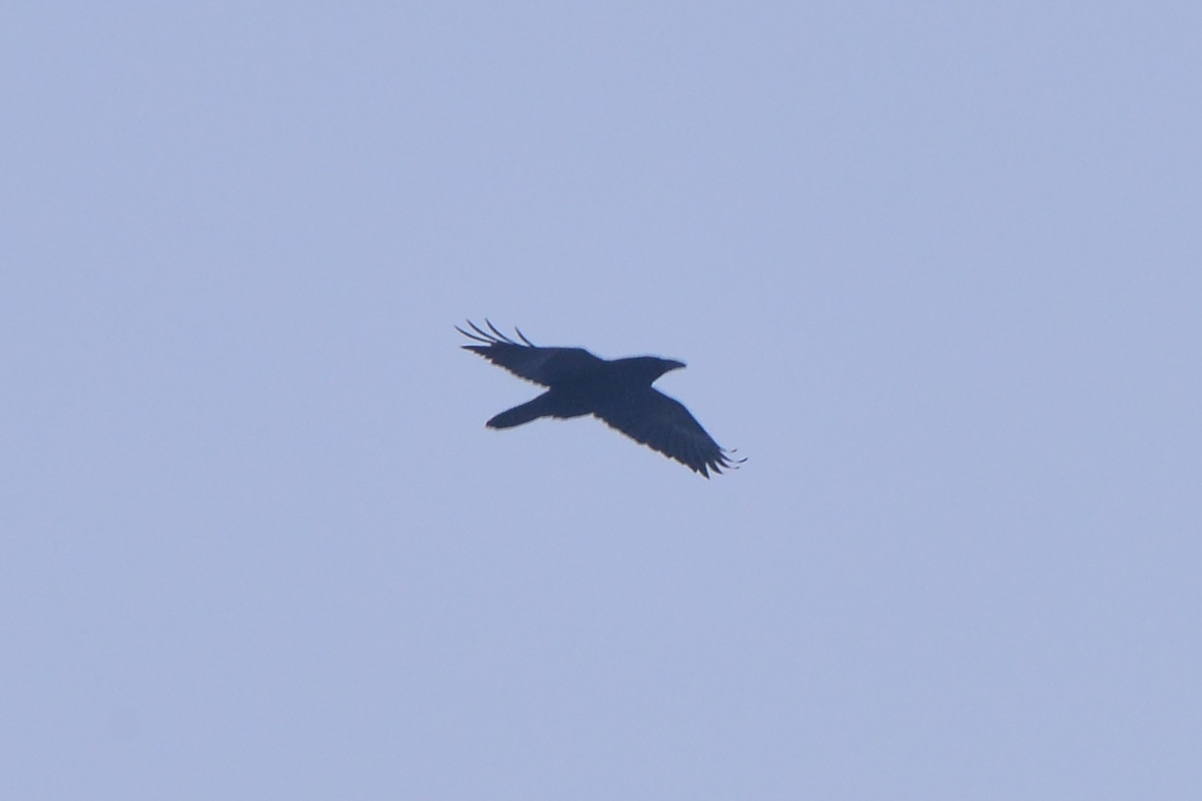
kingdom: Animalia
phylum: Chordata
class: Aves
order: Passeriformes
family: Corvidae
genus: Corvus
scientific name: Corvus corax
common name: Common raven
